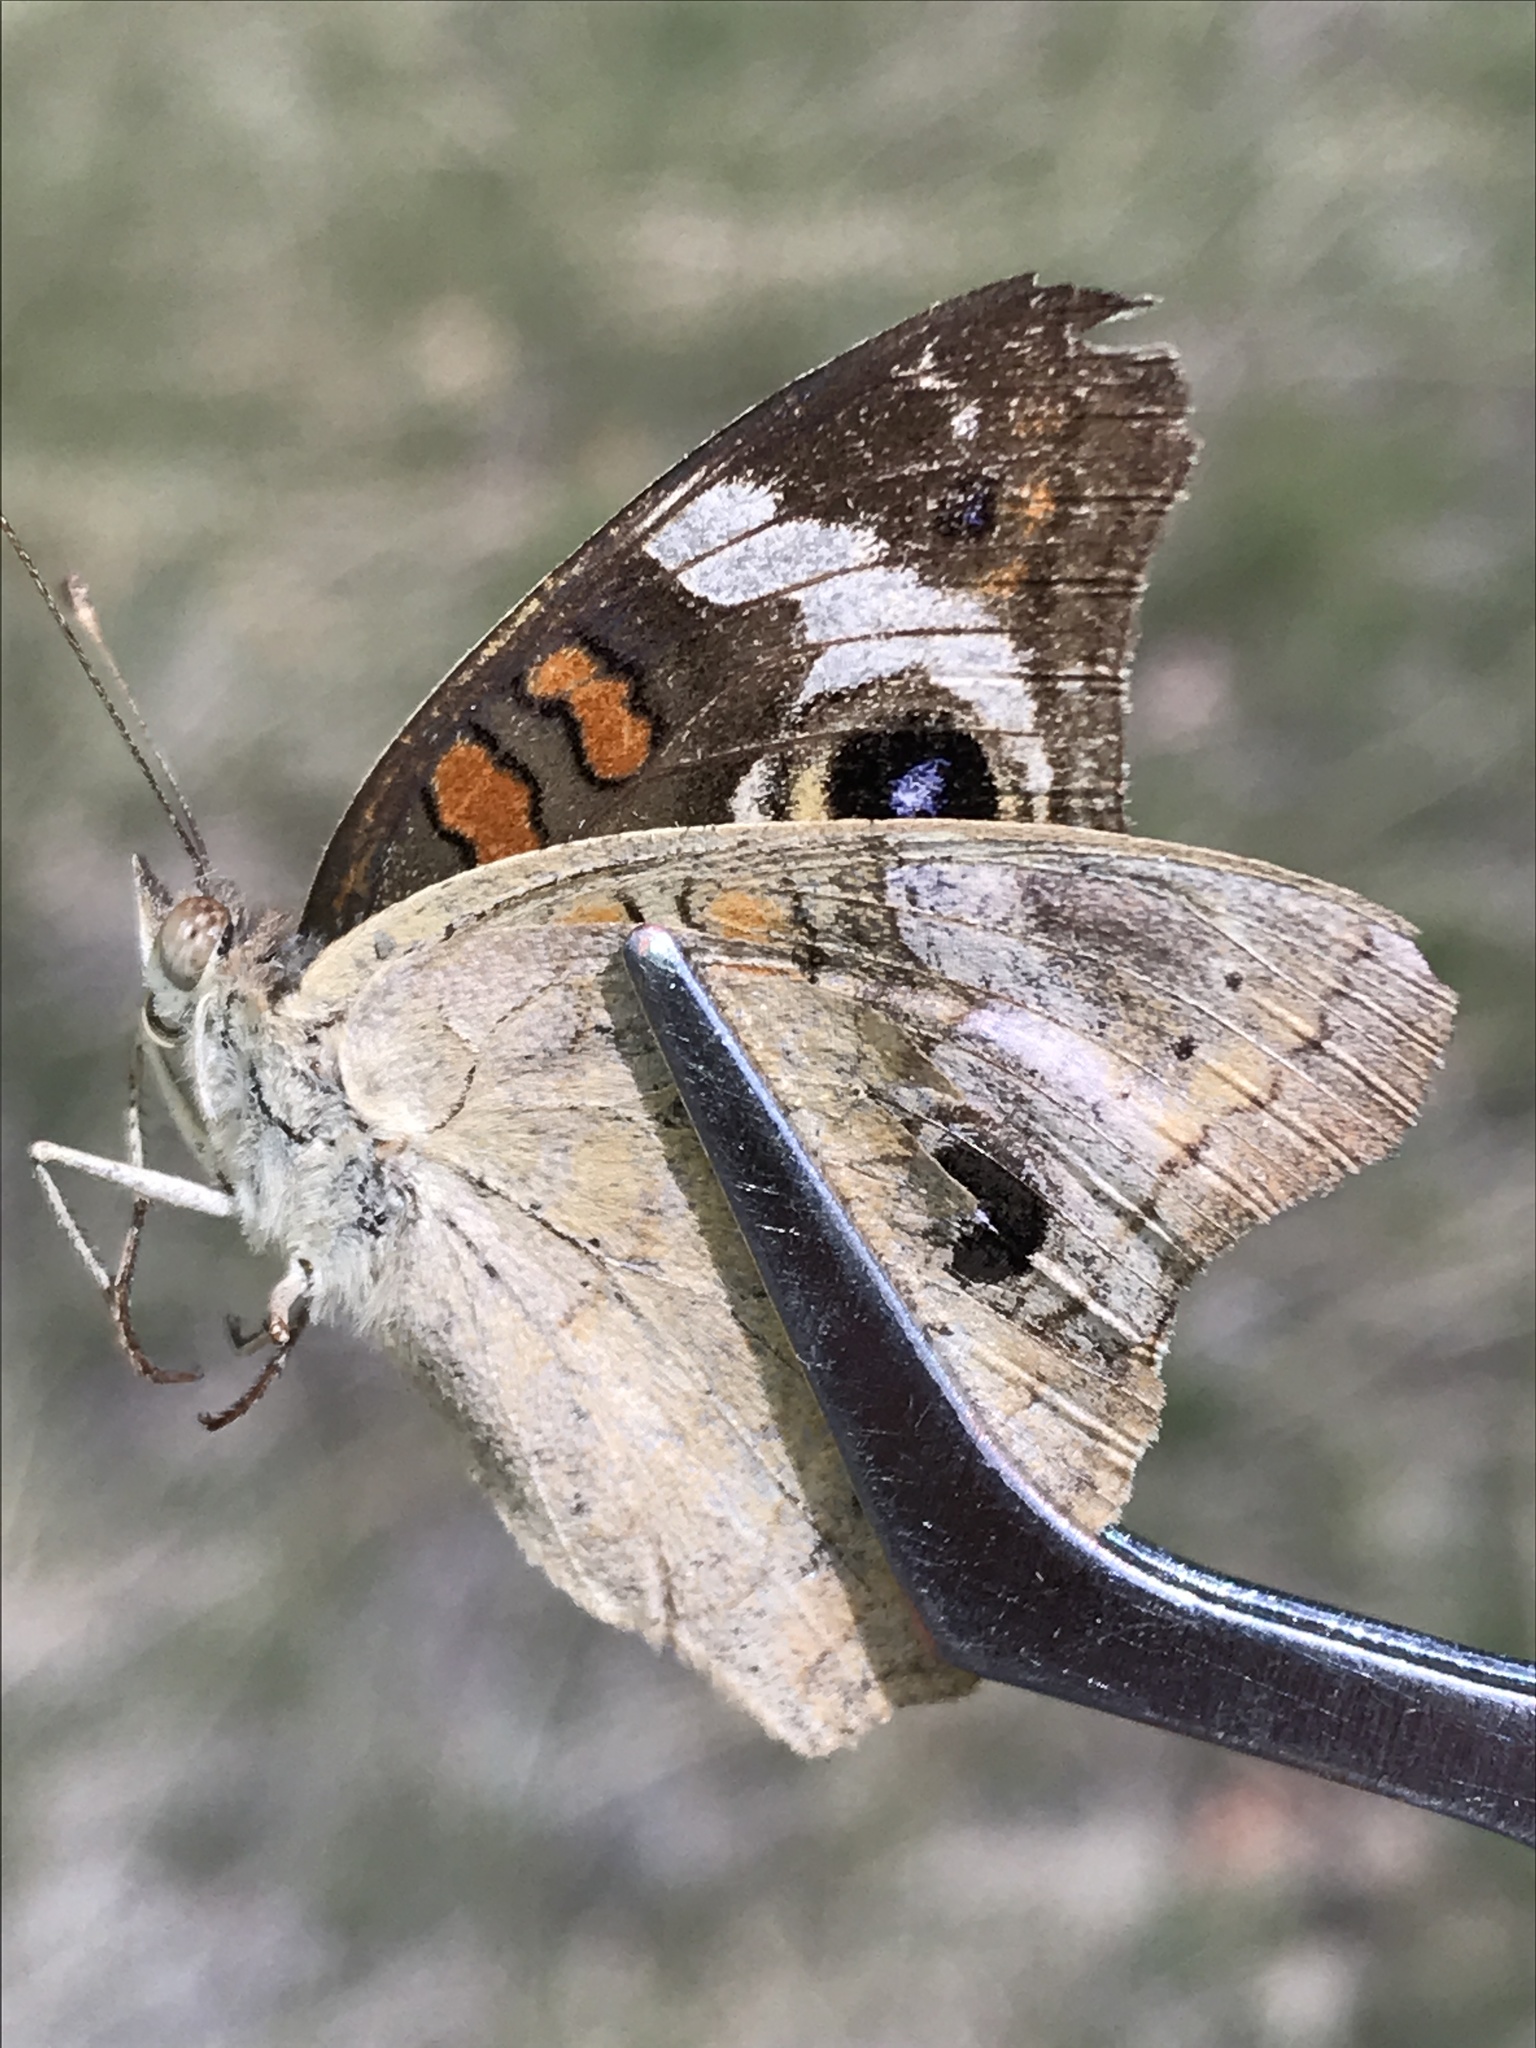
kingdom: Animalia
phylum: Arthropoda
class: Insecta
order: Lepidoptera
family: Nymphalidae
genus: Junonia
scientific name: Junonia grisea
